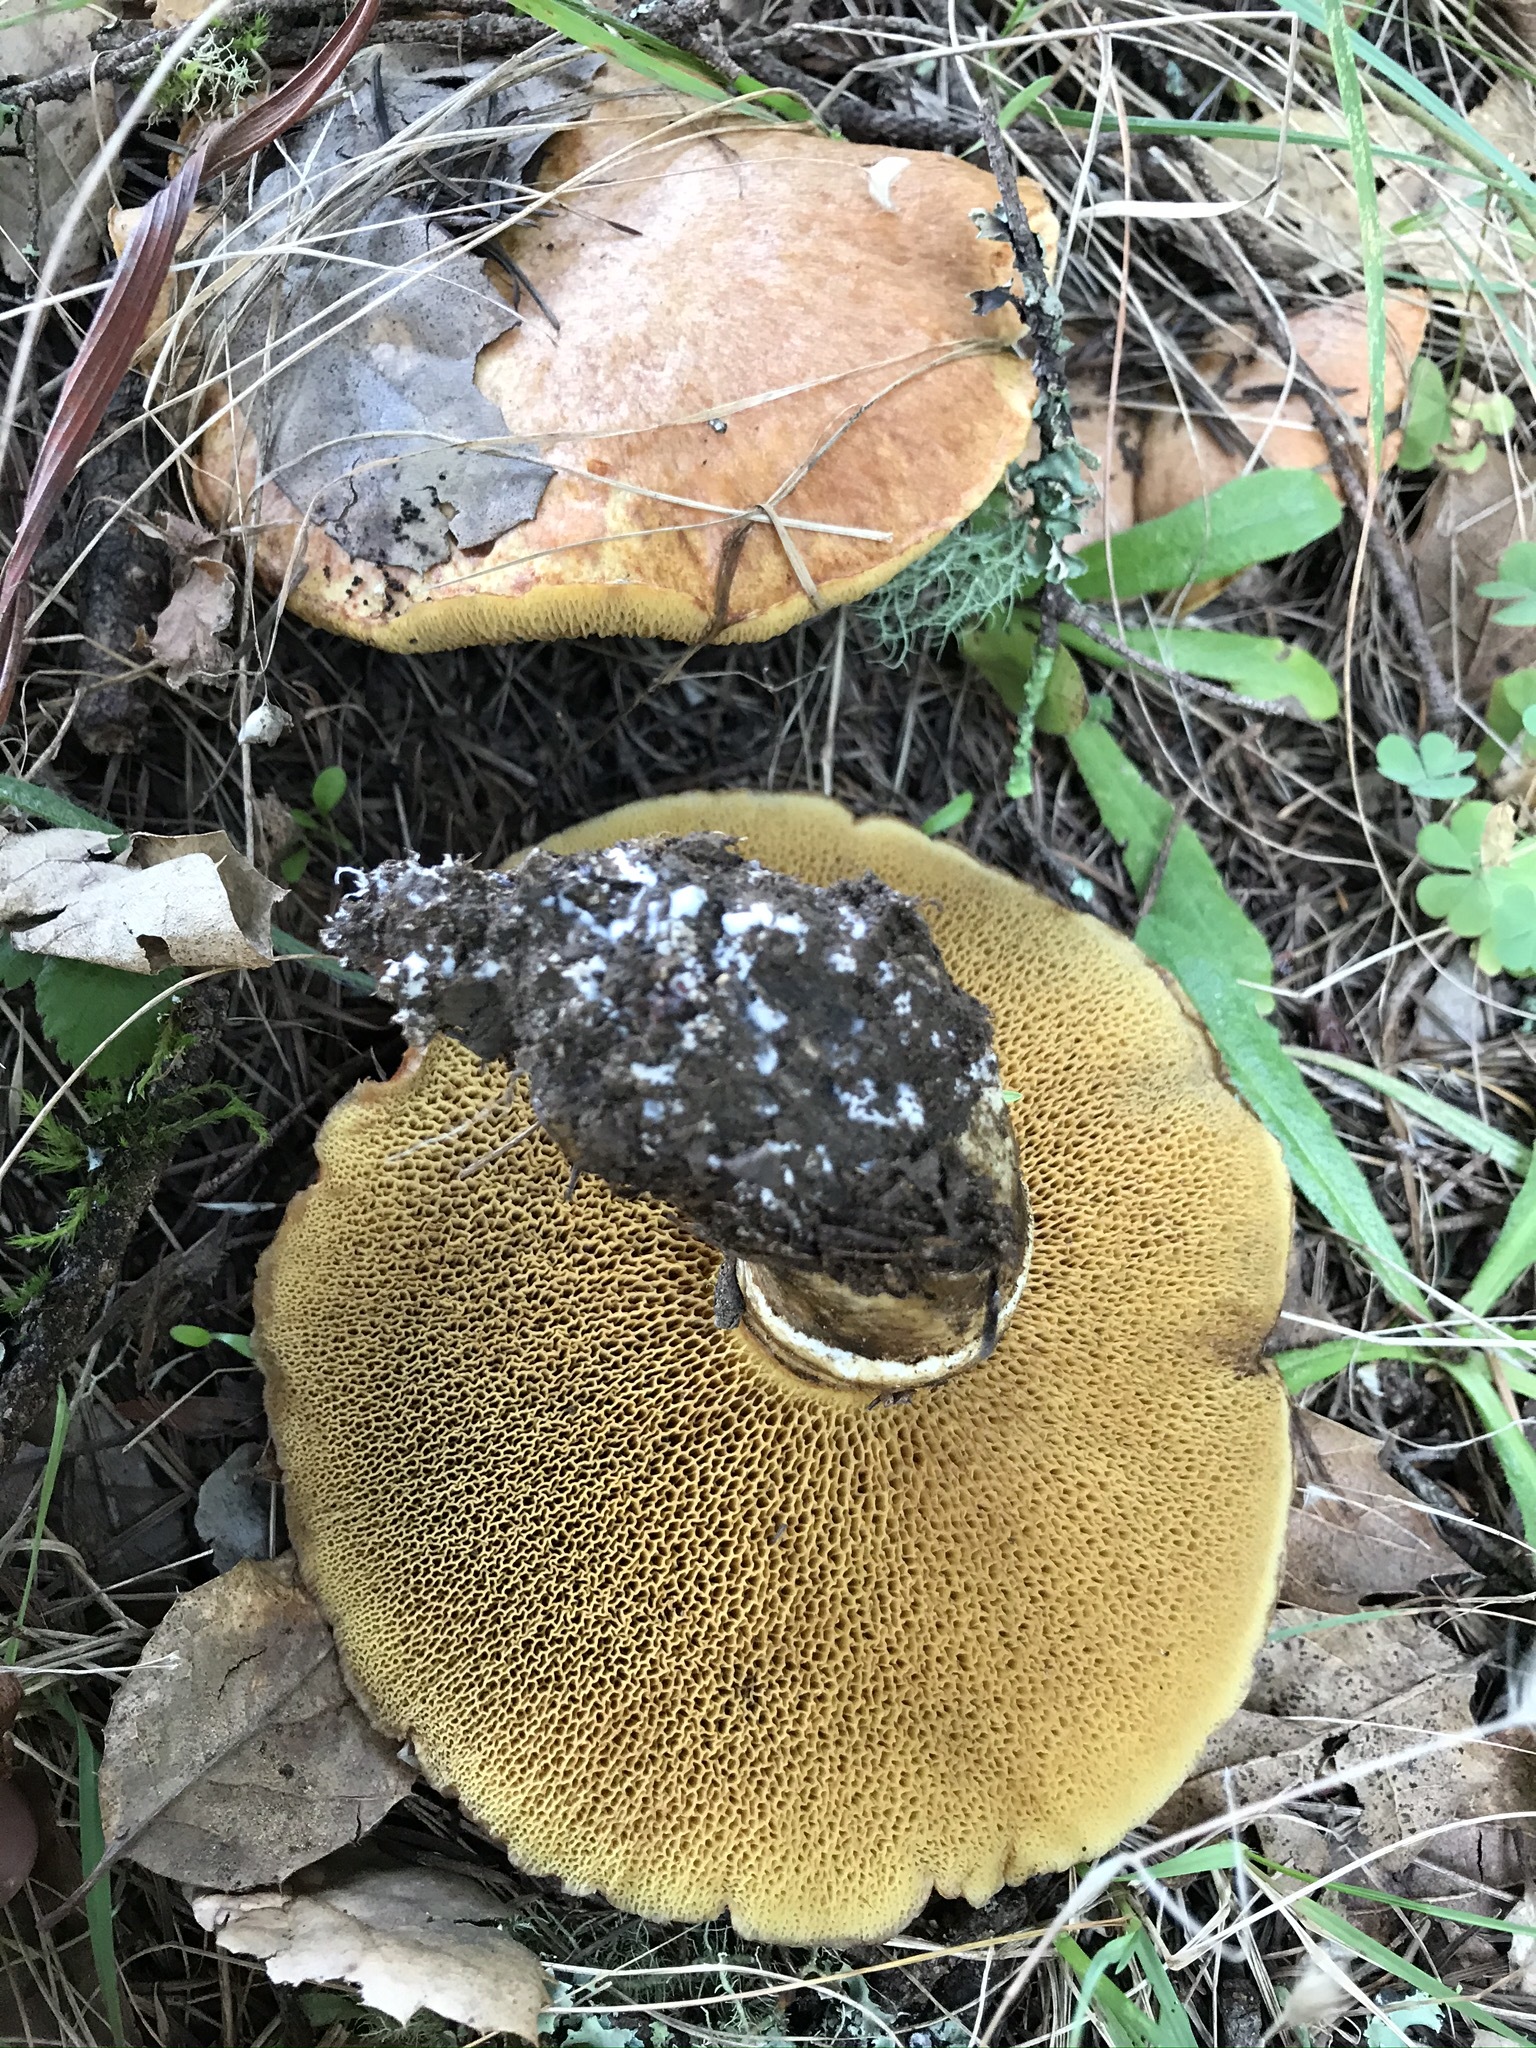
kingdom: Fungi
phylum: Basidiomycota
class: Agaricomycetes
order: Boletales
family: Suillaceae
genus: Suillus
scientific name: Suillus caerulescens
